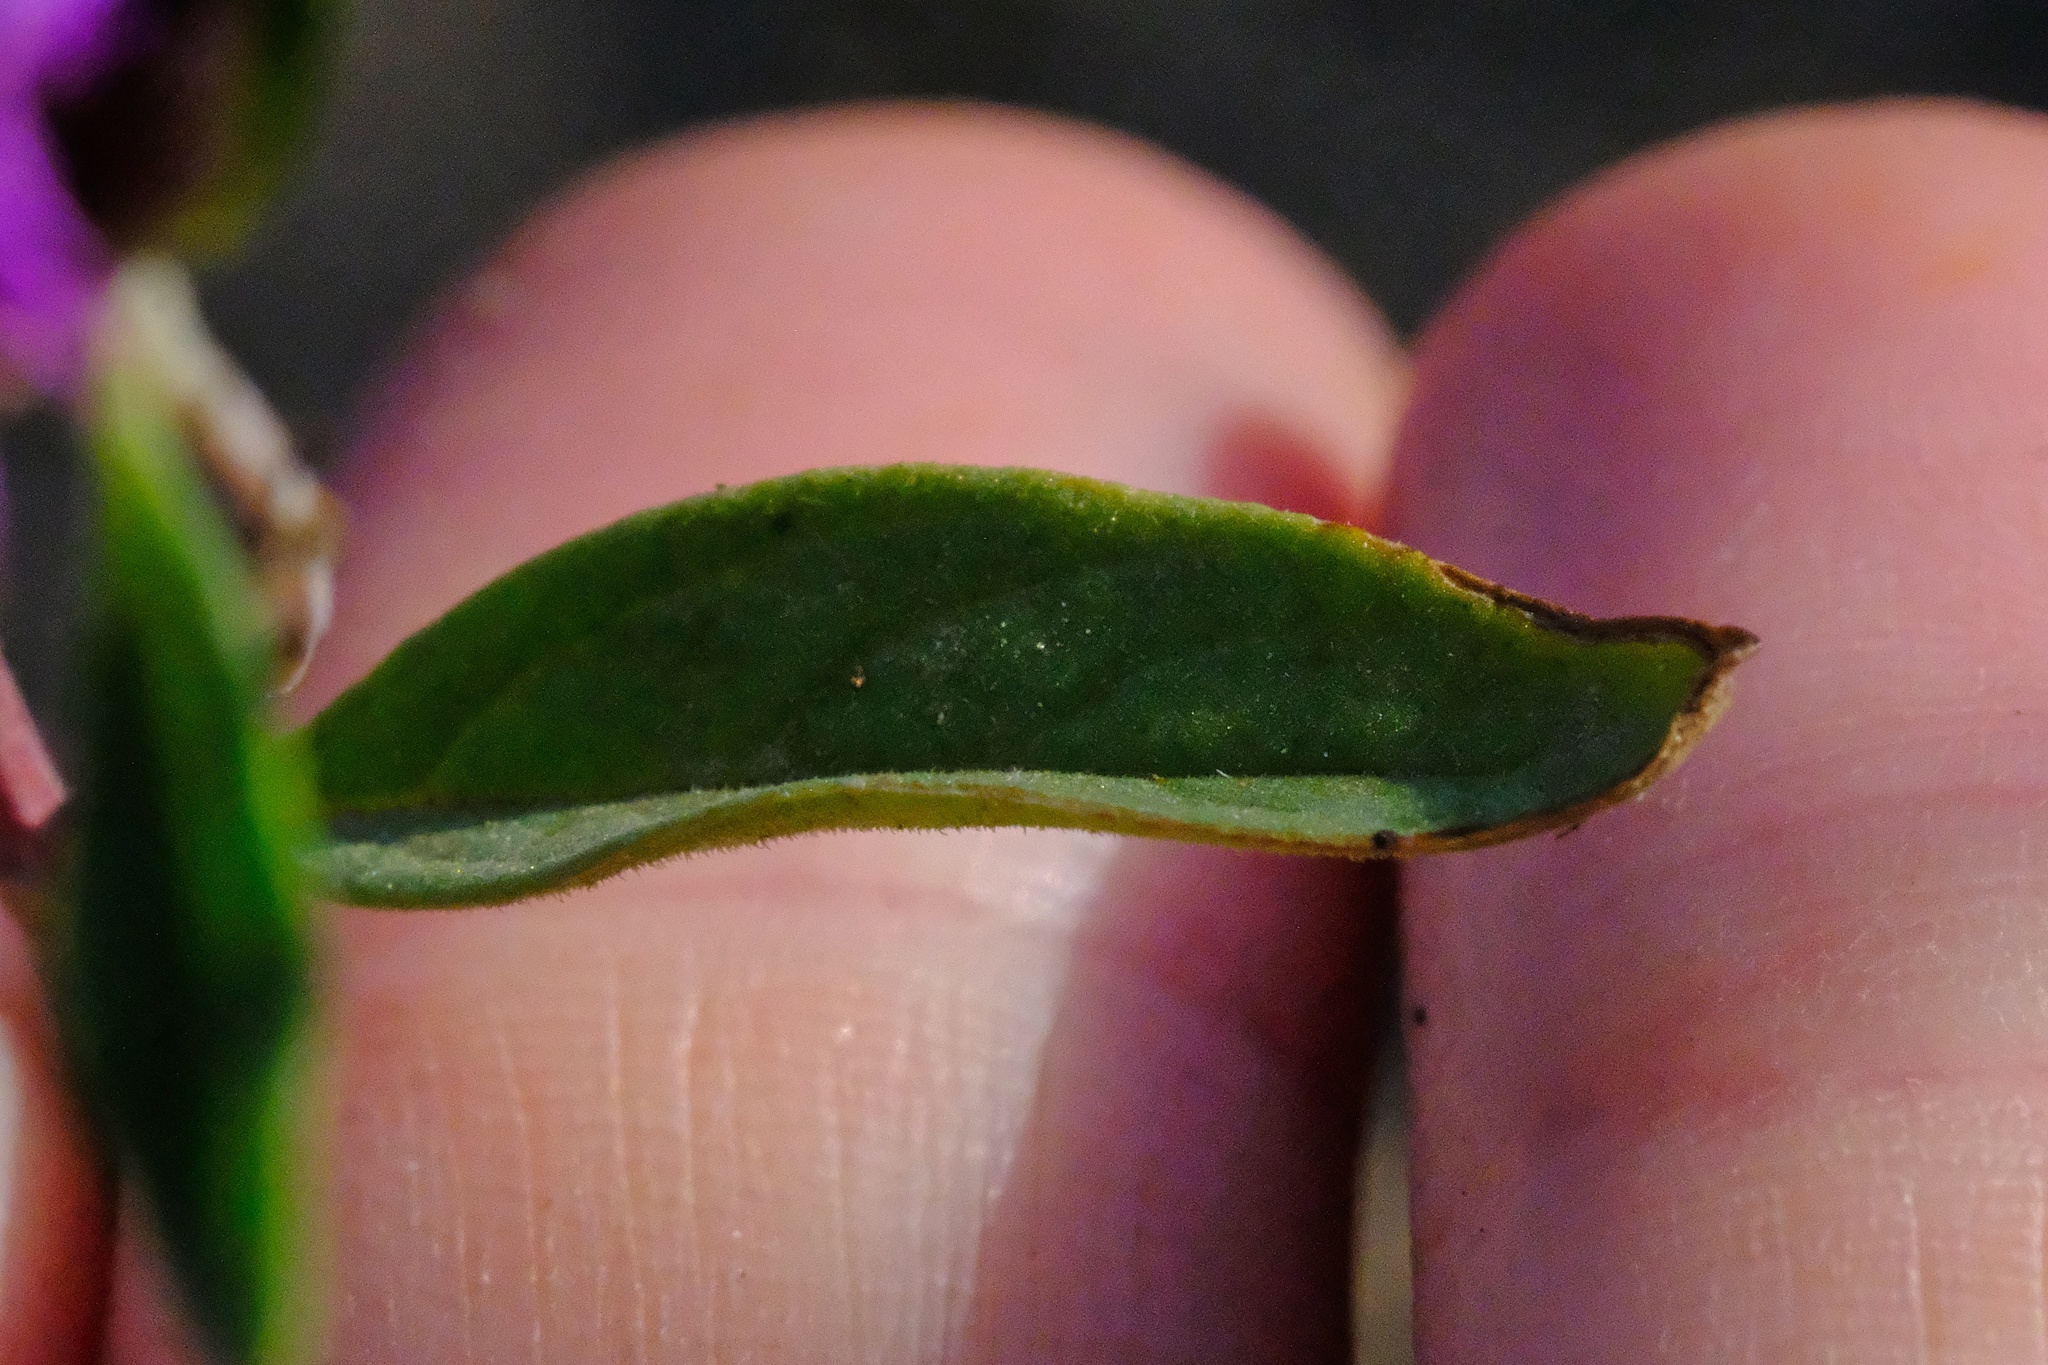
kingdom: Plantae
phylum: Tracheophyta
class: Magnoliopsida
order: Lamiales
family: Lamiaceae
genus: Monardella
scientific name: Monardella breweri
